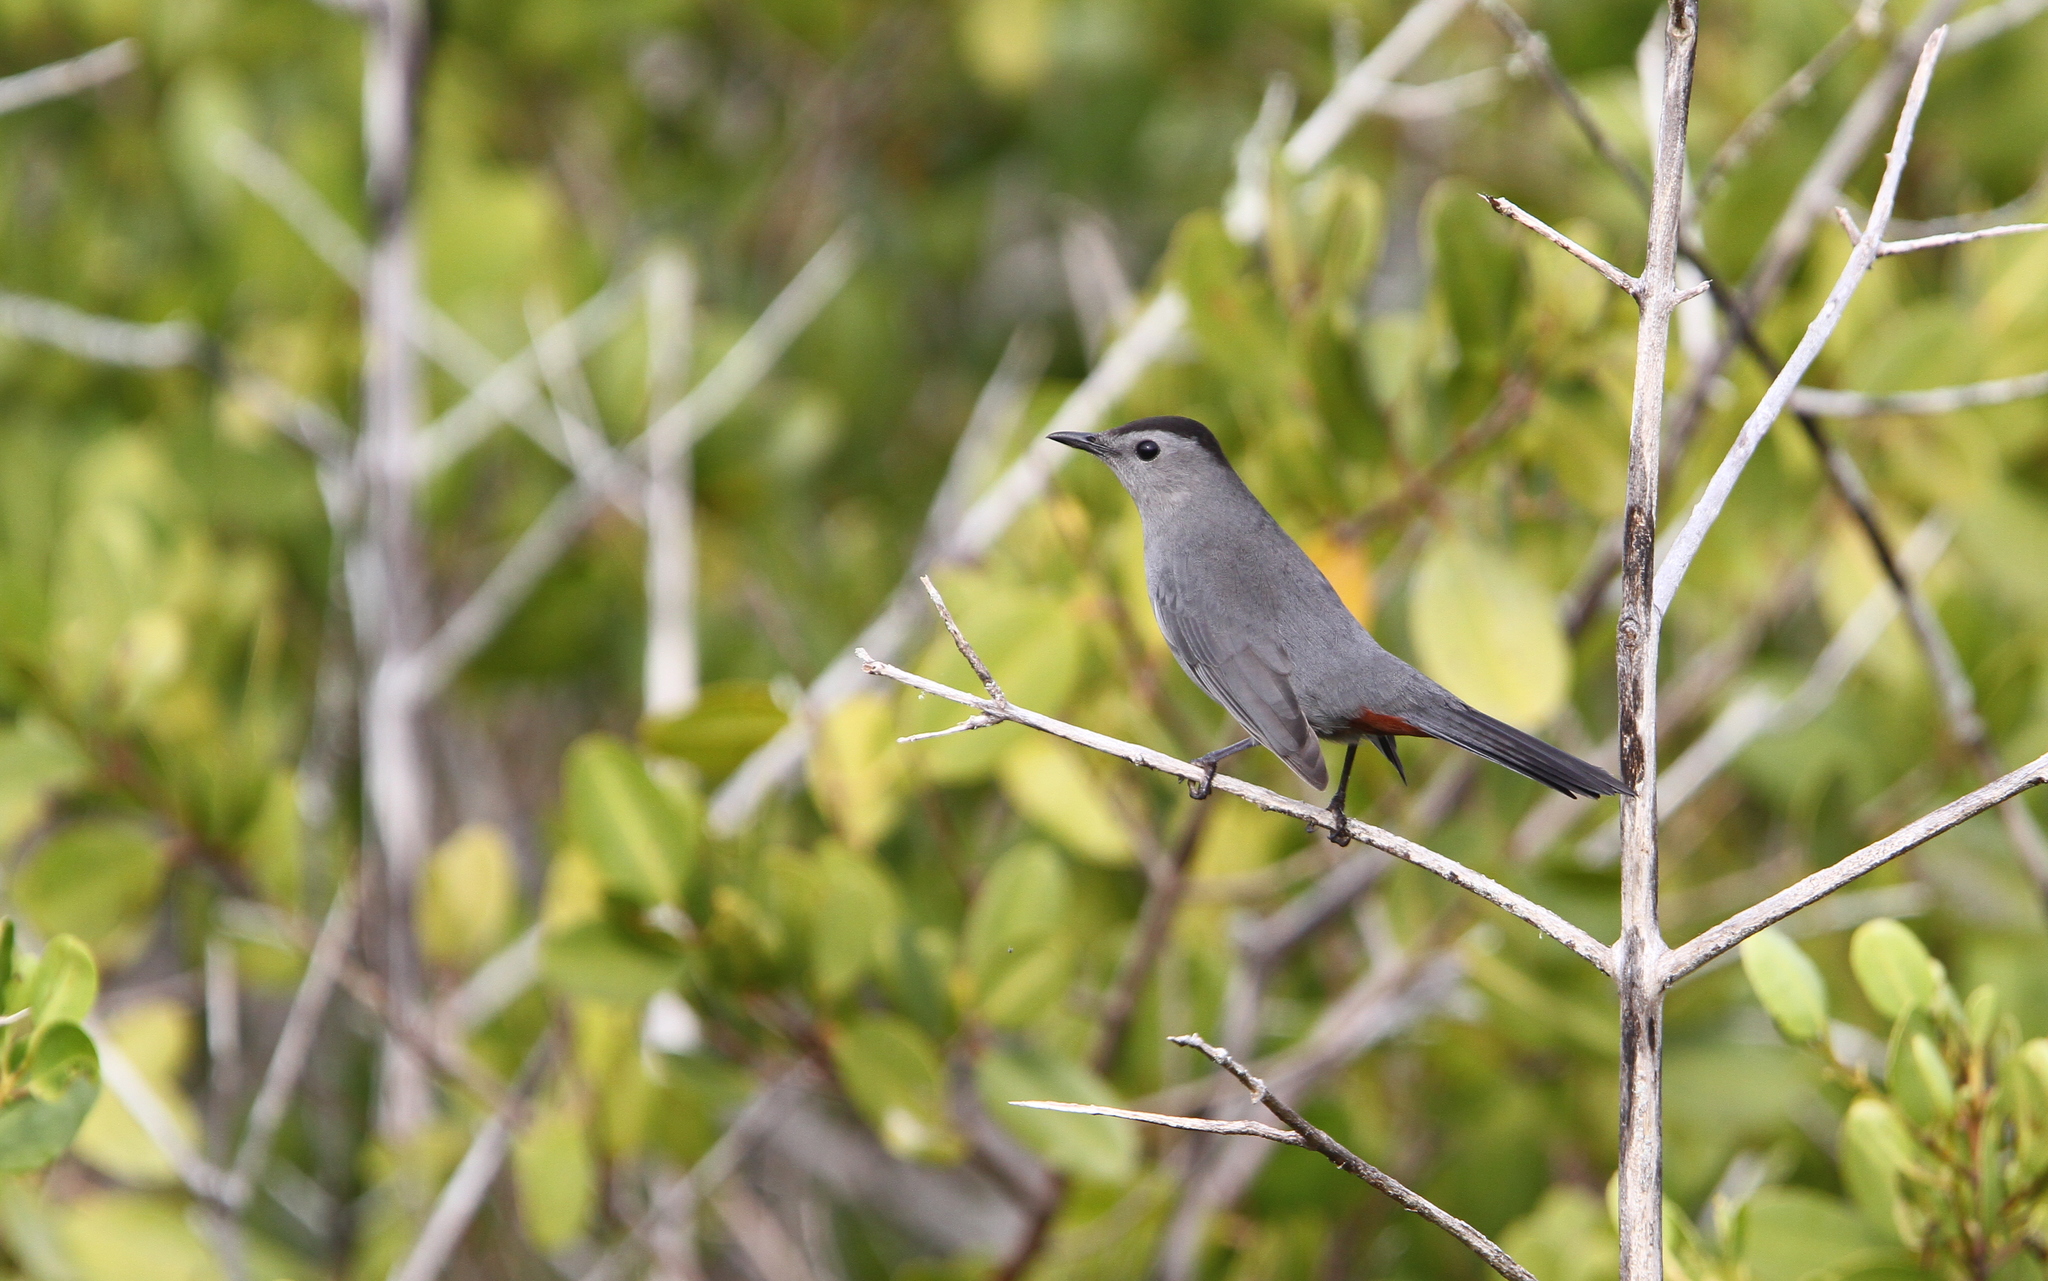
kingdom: Animalia
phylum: Chordata
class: Aves
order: Passeriformes
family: Mimidae
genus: Dumetella
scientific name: Dumetella carolinensis
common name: Gray catbird
